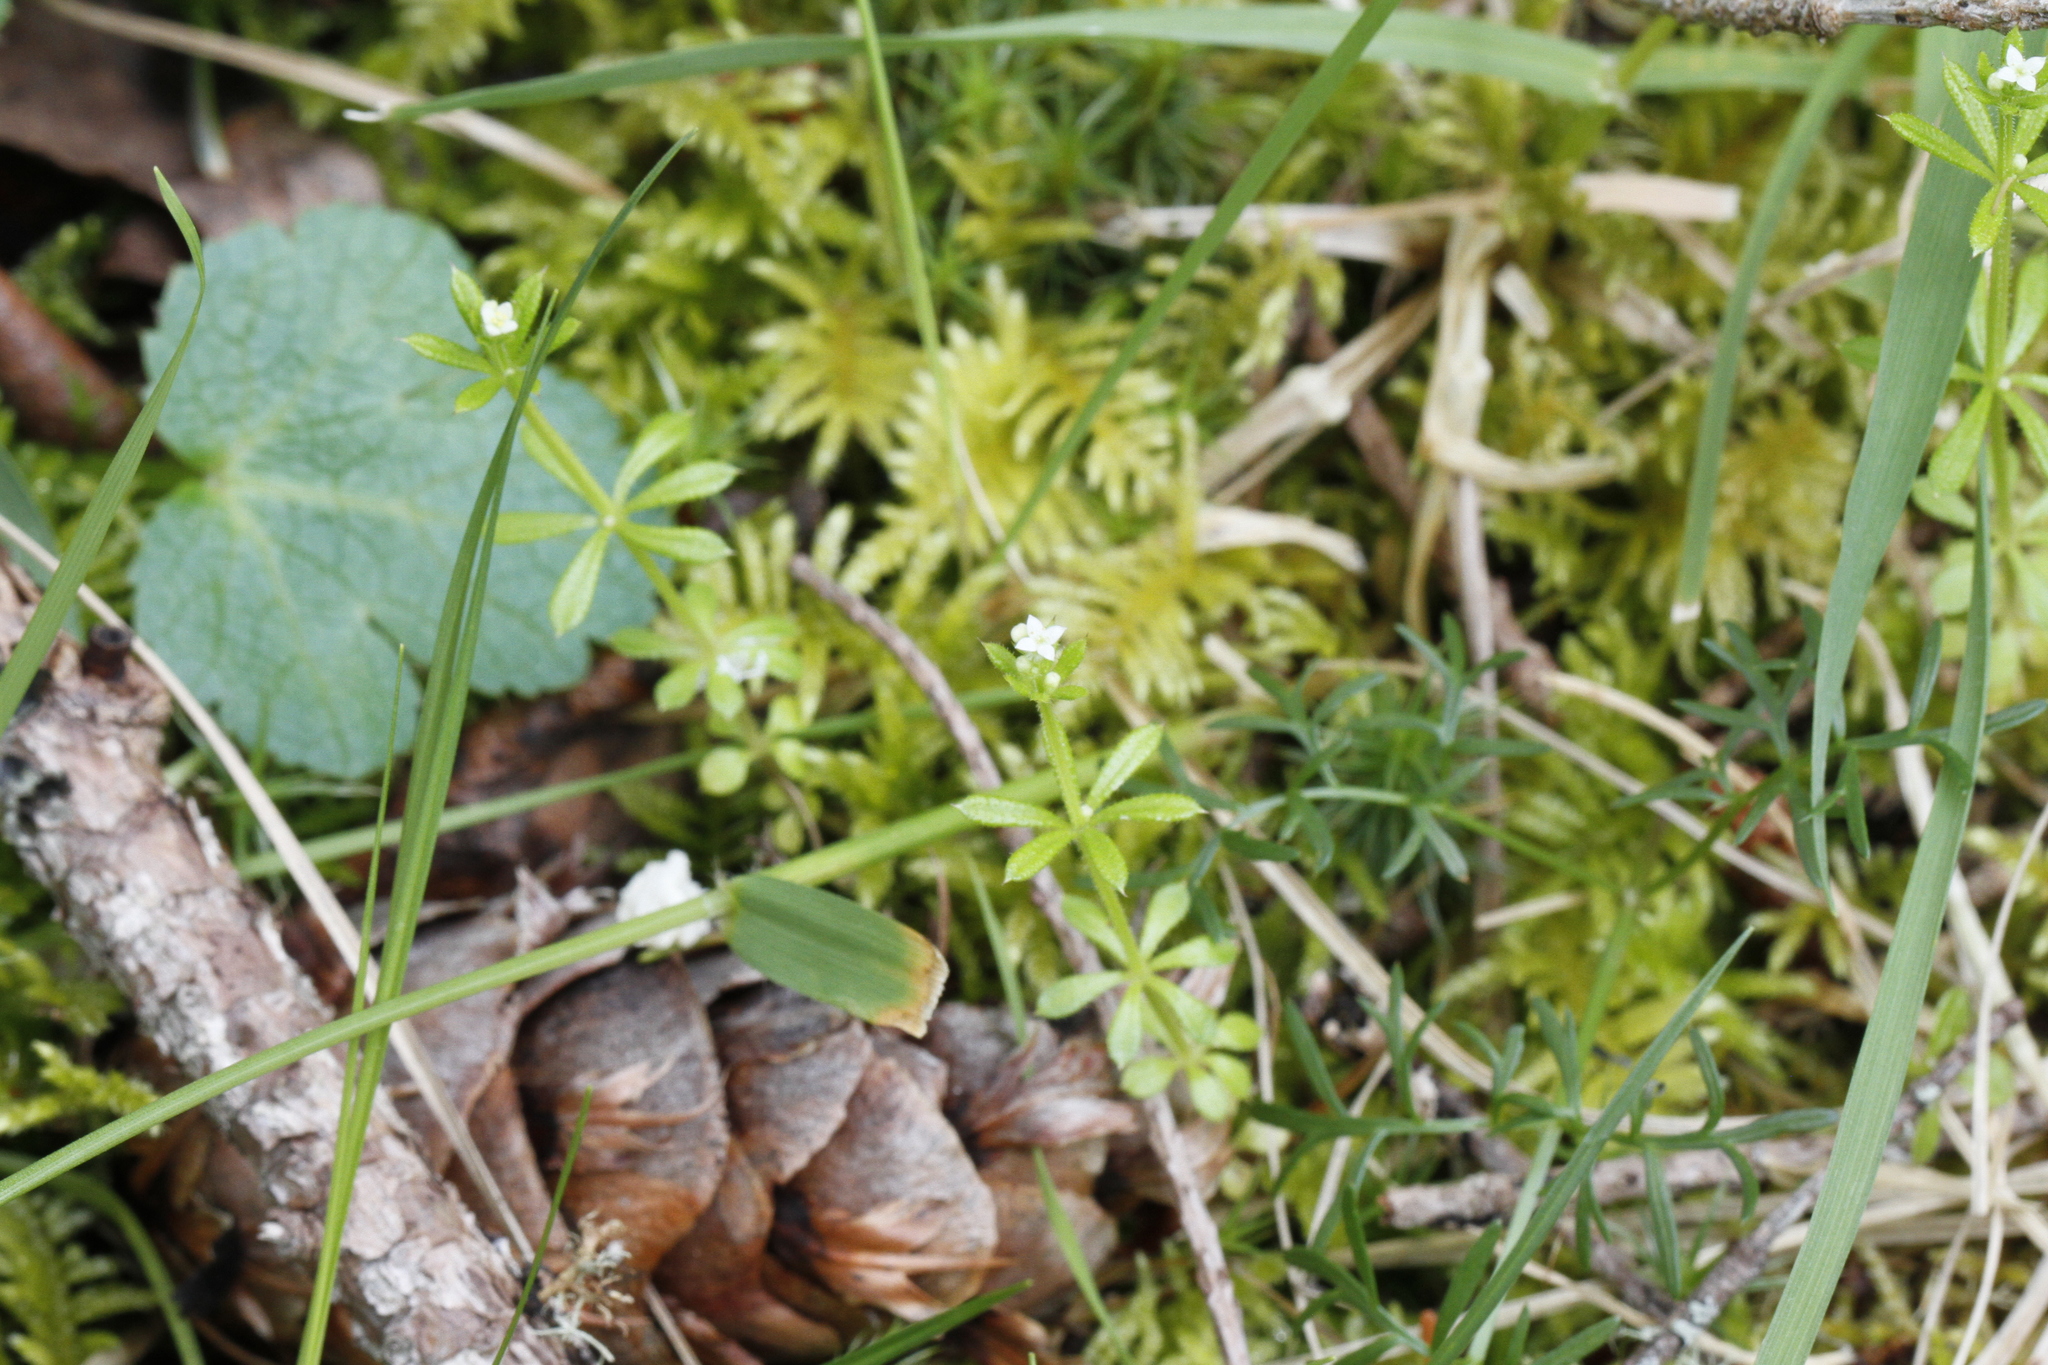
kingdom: Plantae
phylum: Tracheophyta
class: Magnoliopsida
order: Gentianales
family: Rubiaceae
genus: Galium
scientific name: Galium aparine
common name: Cleavers
